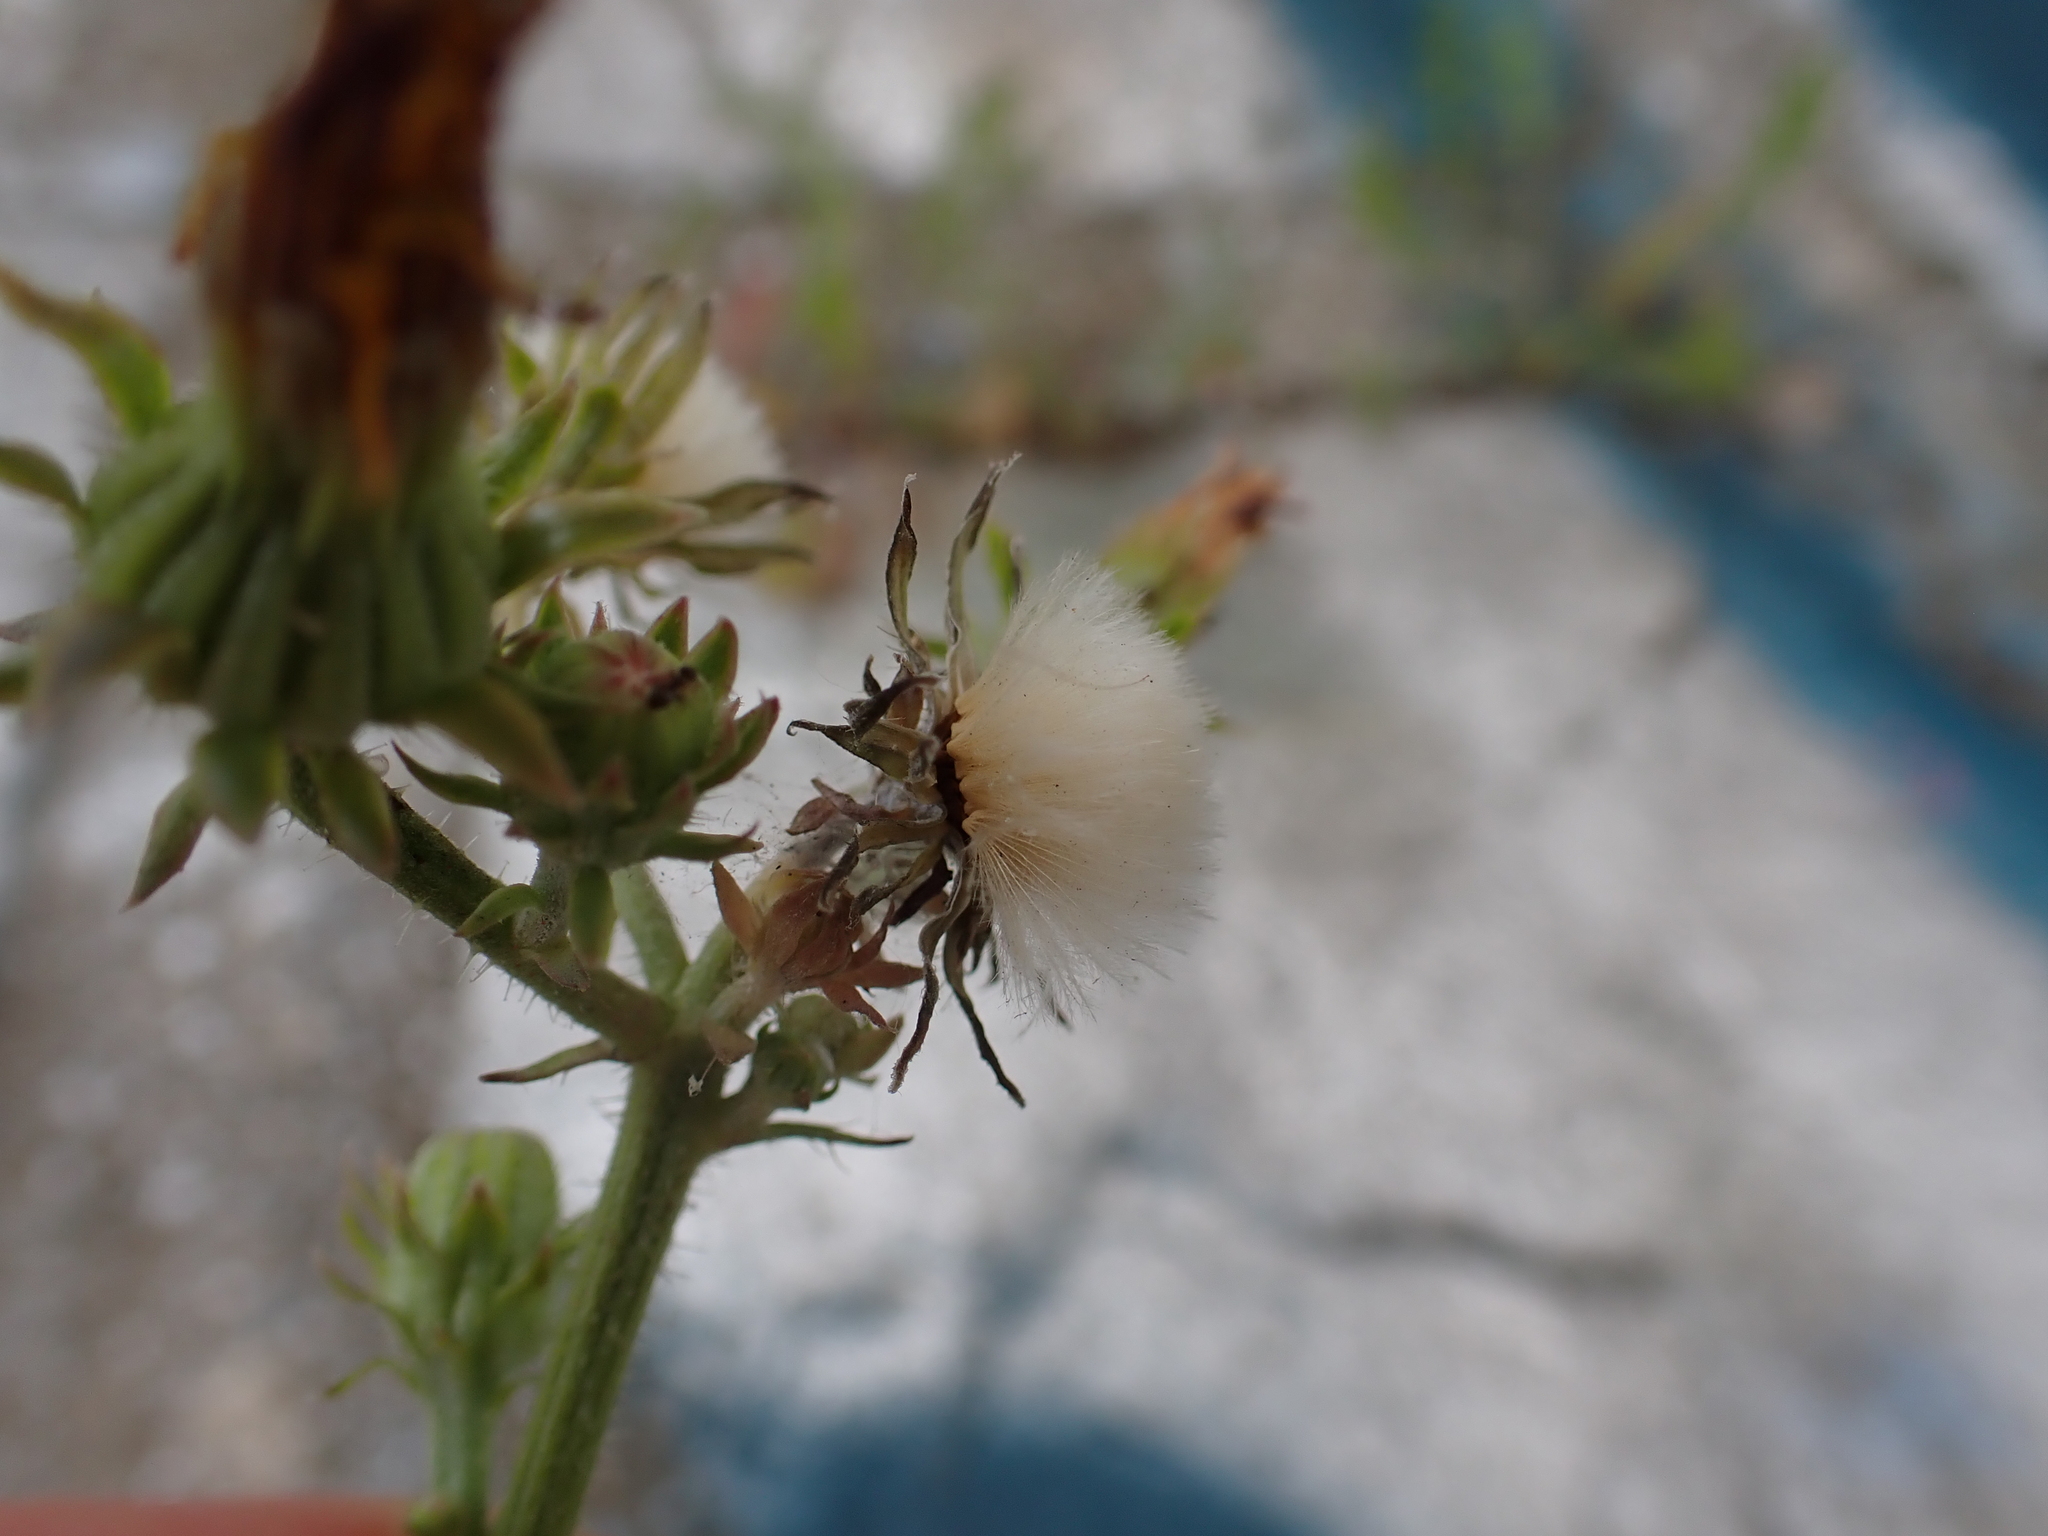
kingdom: Plantae
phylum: Tracheophyta
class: Magnoliopsida
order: Asterales
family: Asteraceae
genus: Picris
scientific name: Picris hieracioides
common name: Hawkweed oxtongue
